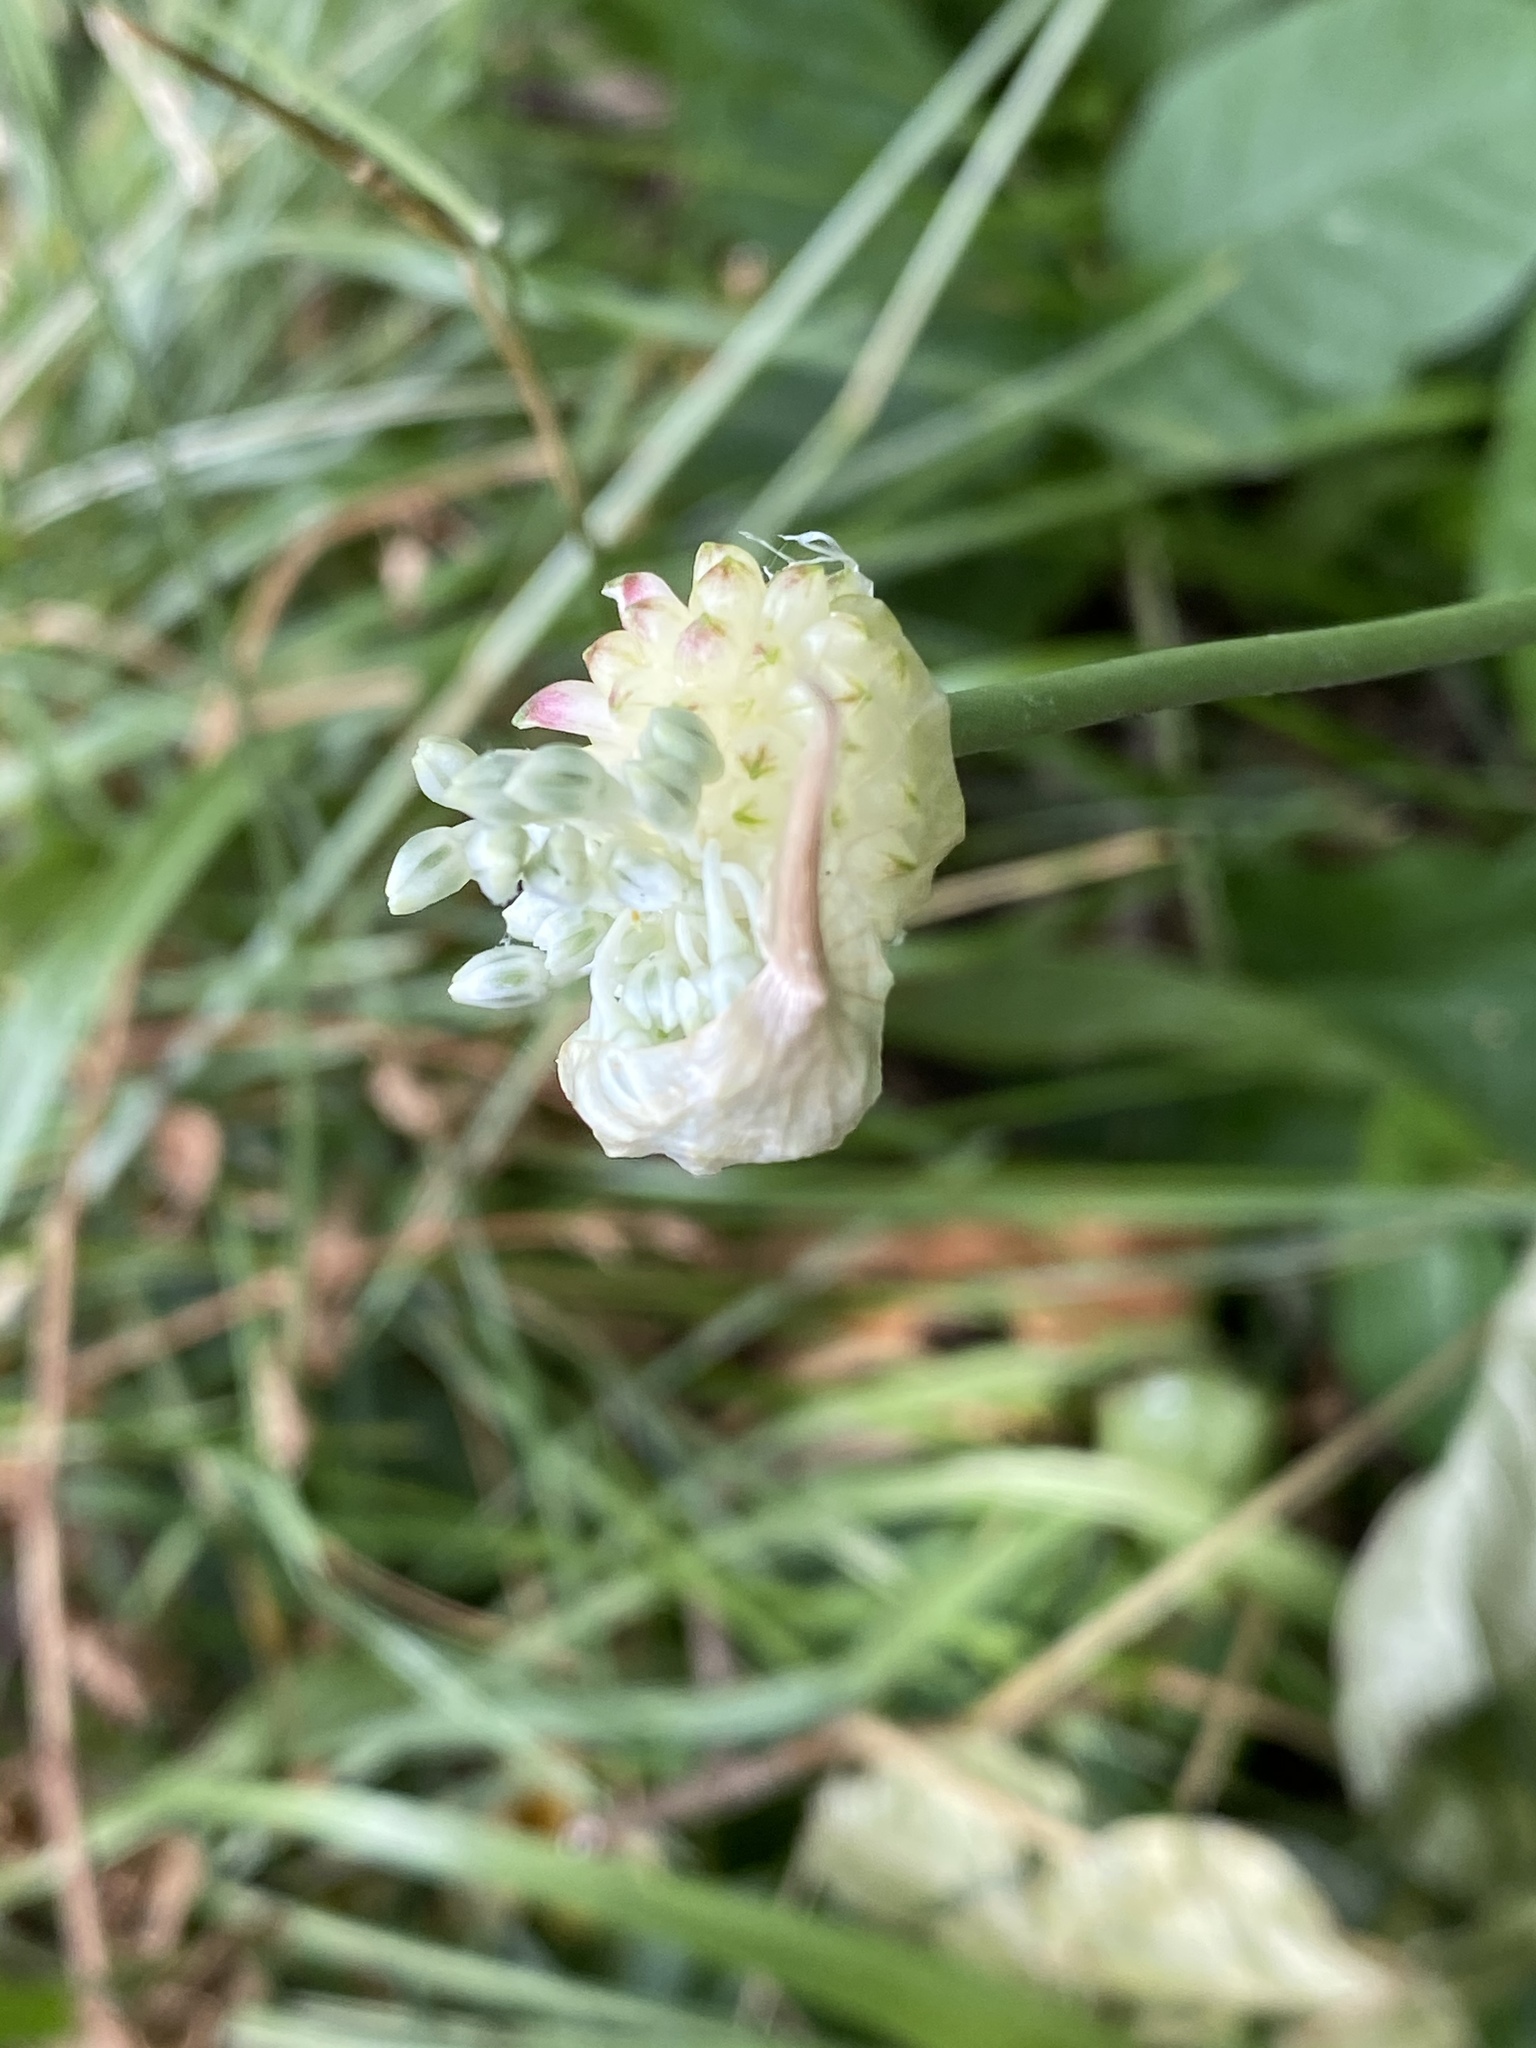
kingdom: Plantae
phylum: Tracheophyta
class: Liliopsida
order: Asparagales
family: Amaryllidaceae
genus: Allium
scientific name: Allium vineale
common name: Crow garlic
